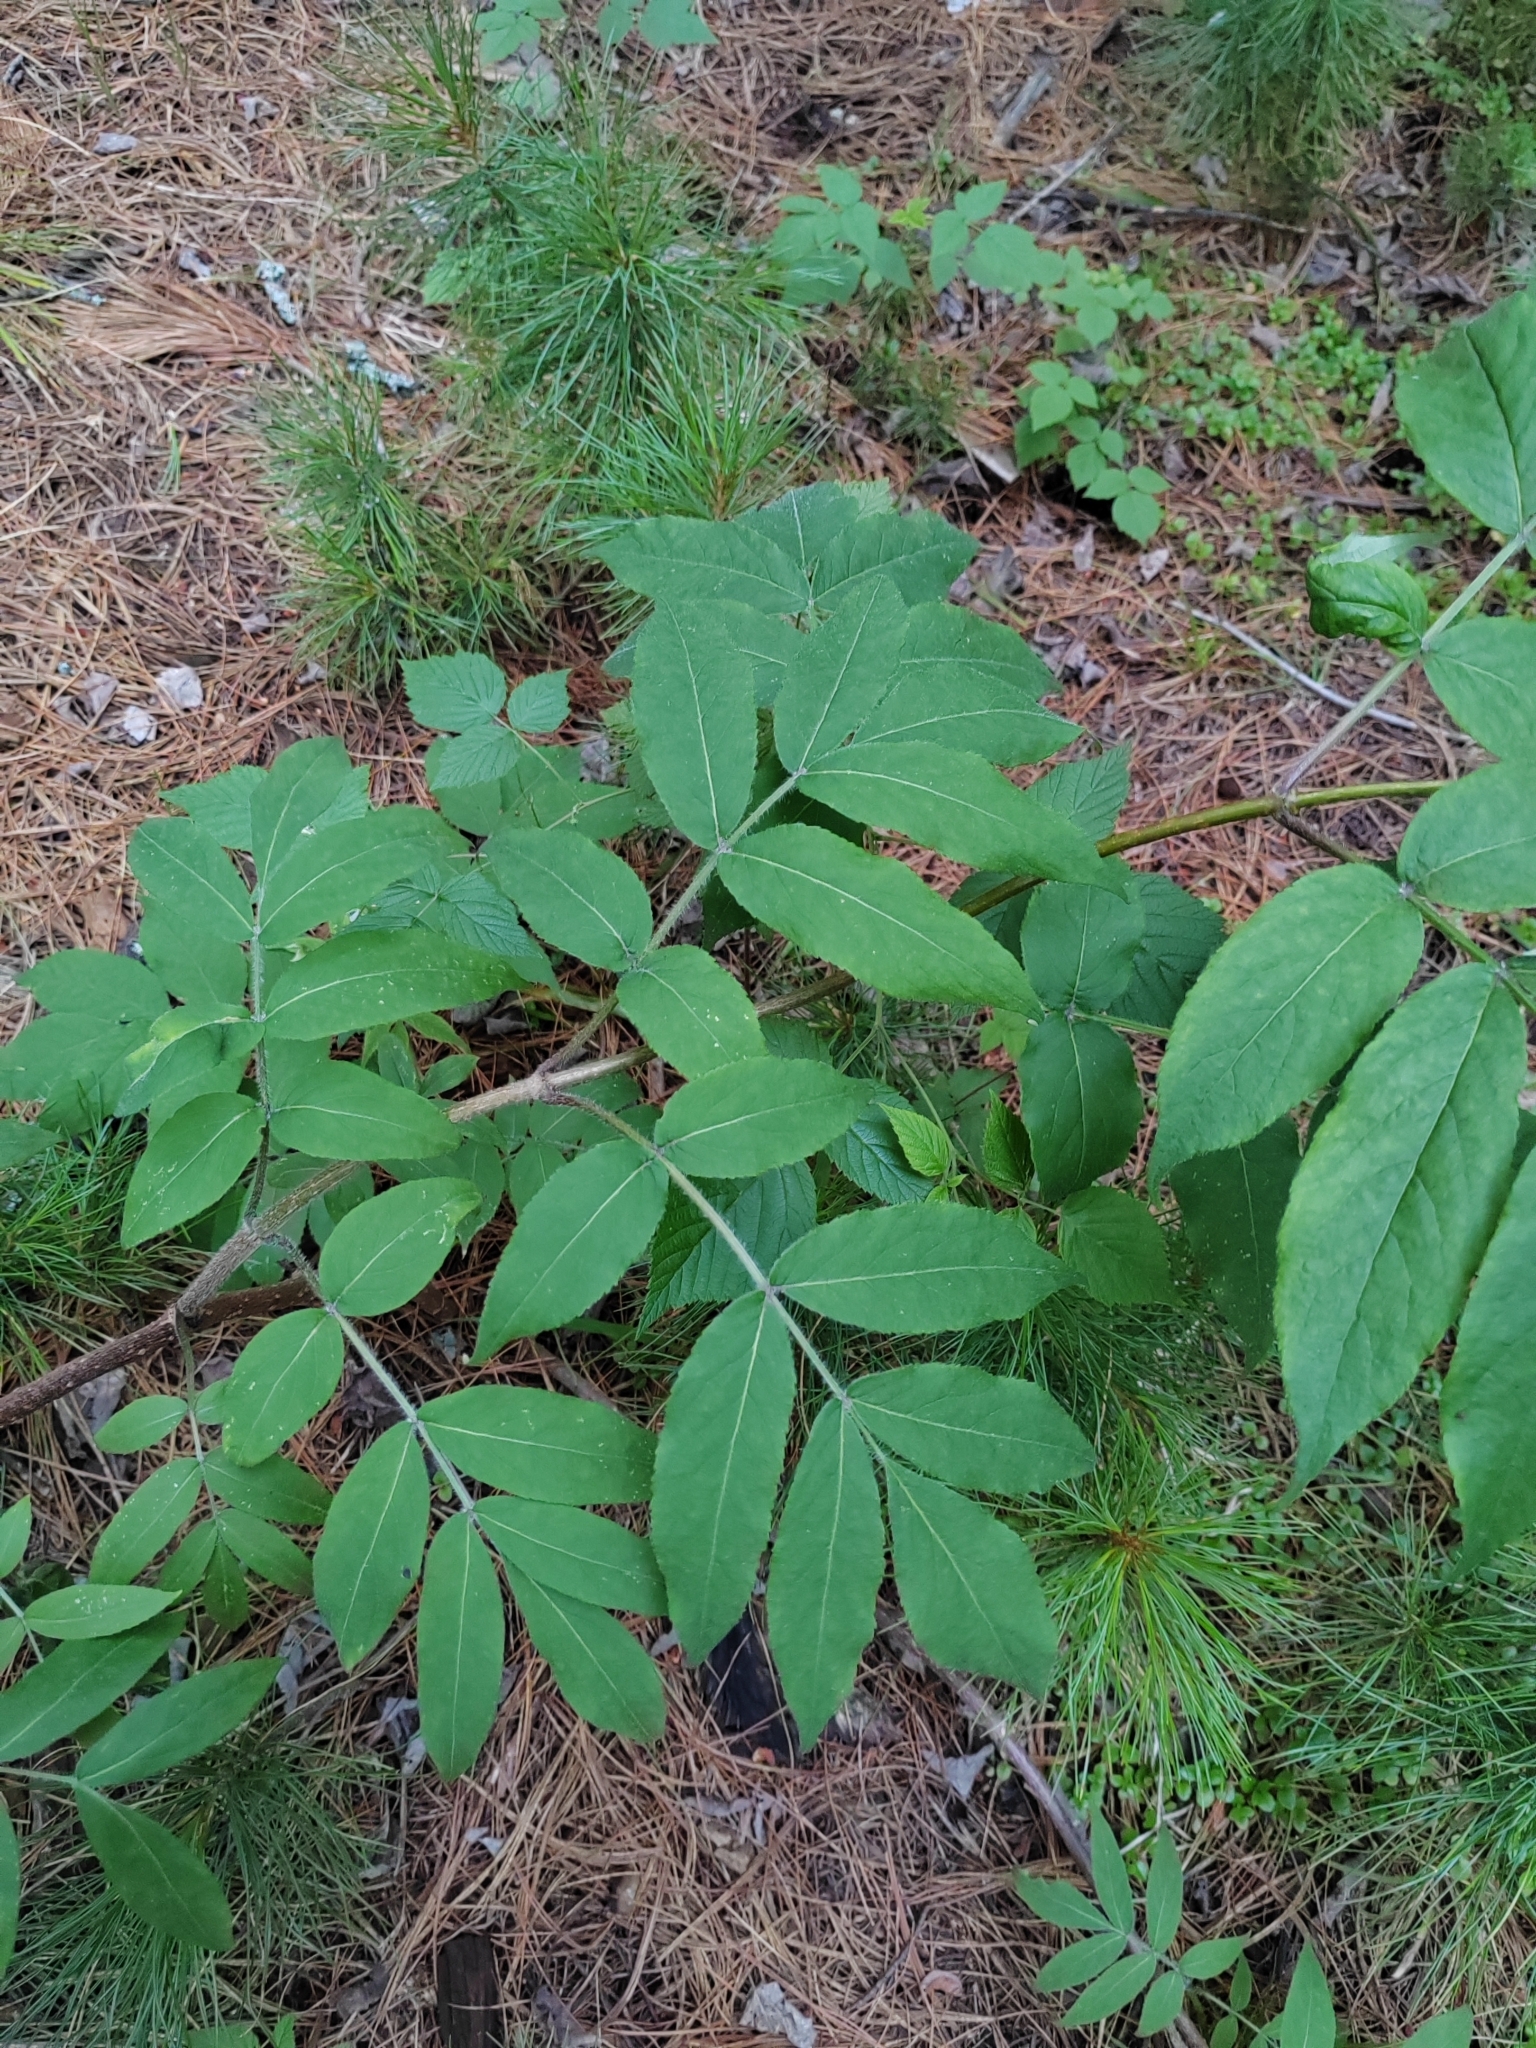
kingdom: Plantae
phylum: Tracheophyta
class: Magnoliopsida
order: Dipsacales
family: Viburnaceae
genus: Sambucus
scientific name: Sambucus sibirica
